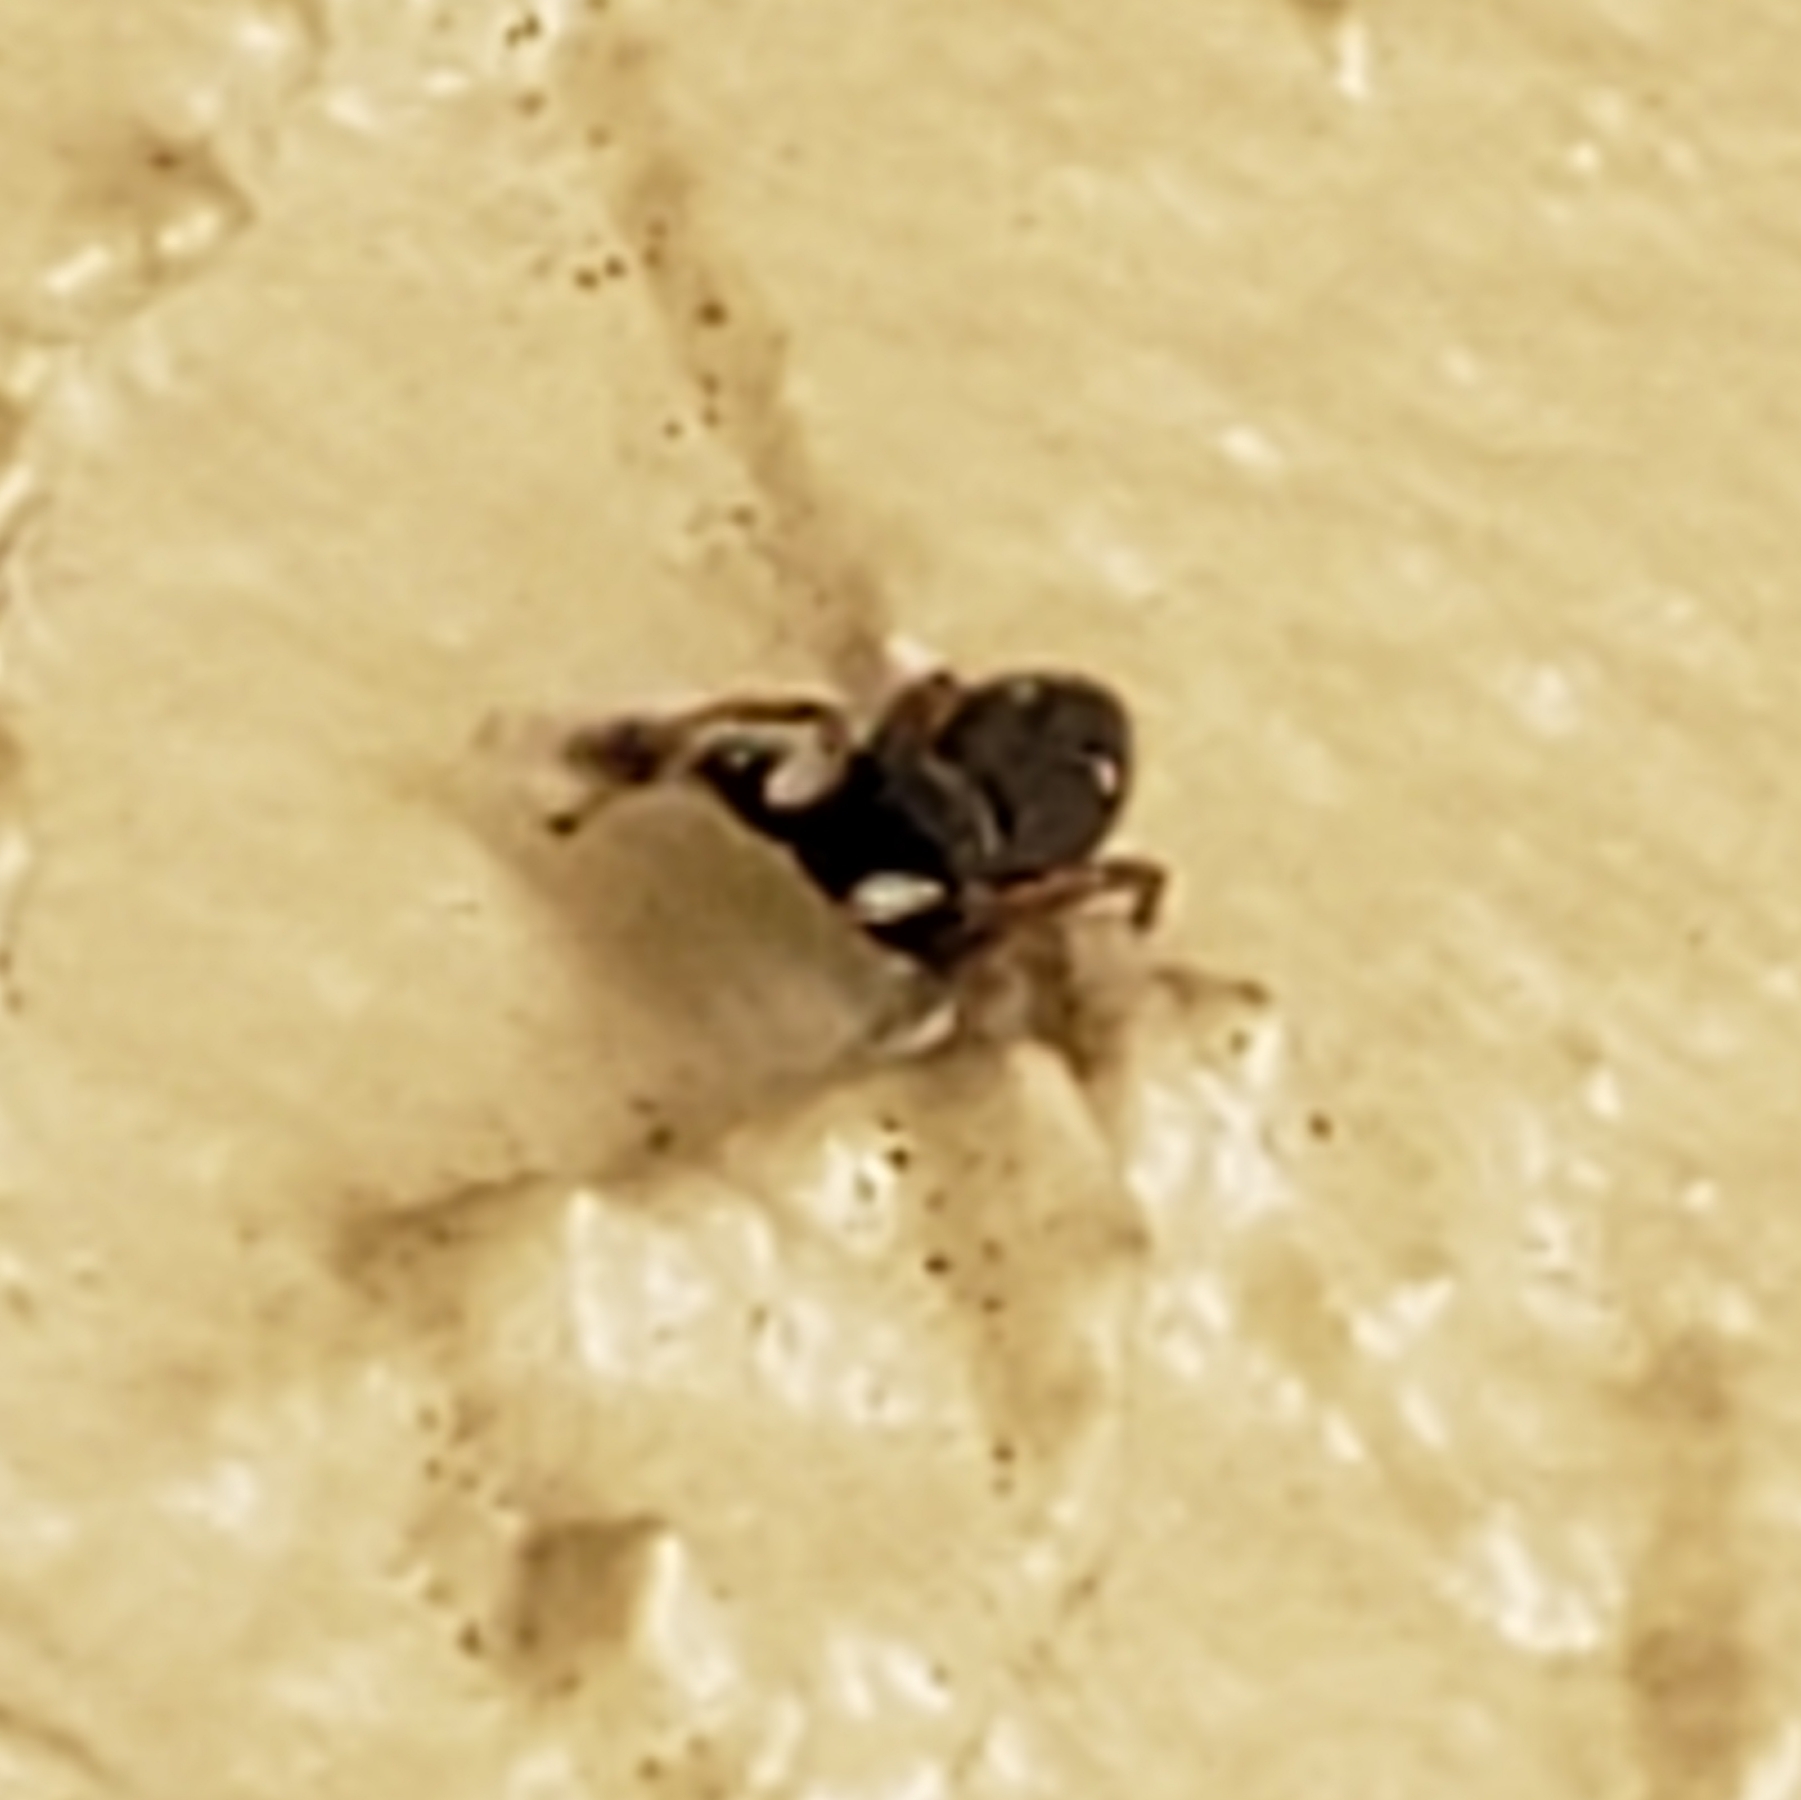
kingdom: Animalia
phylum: Arthropoda
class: Arachnida
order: Araneae
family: Salticidae
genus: Metacyrba
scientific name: Metacyrba punctata
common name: Jumping spiders
